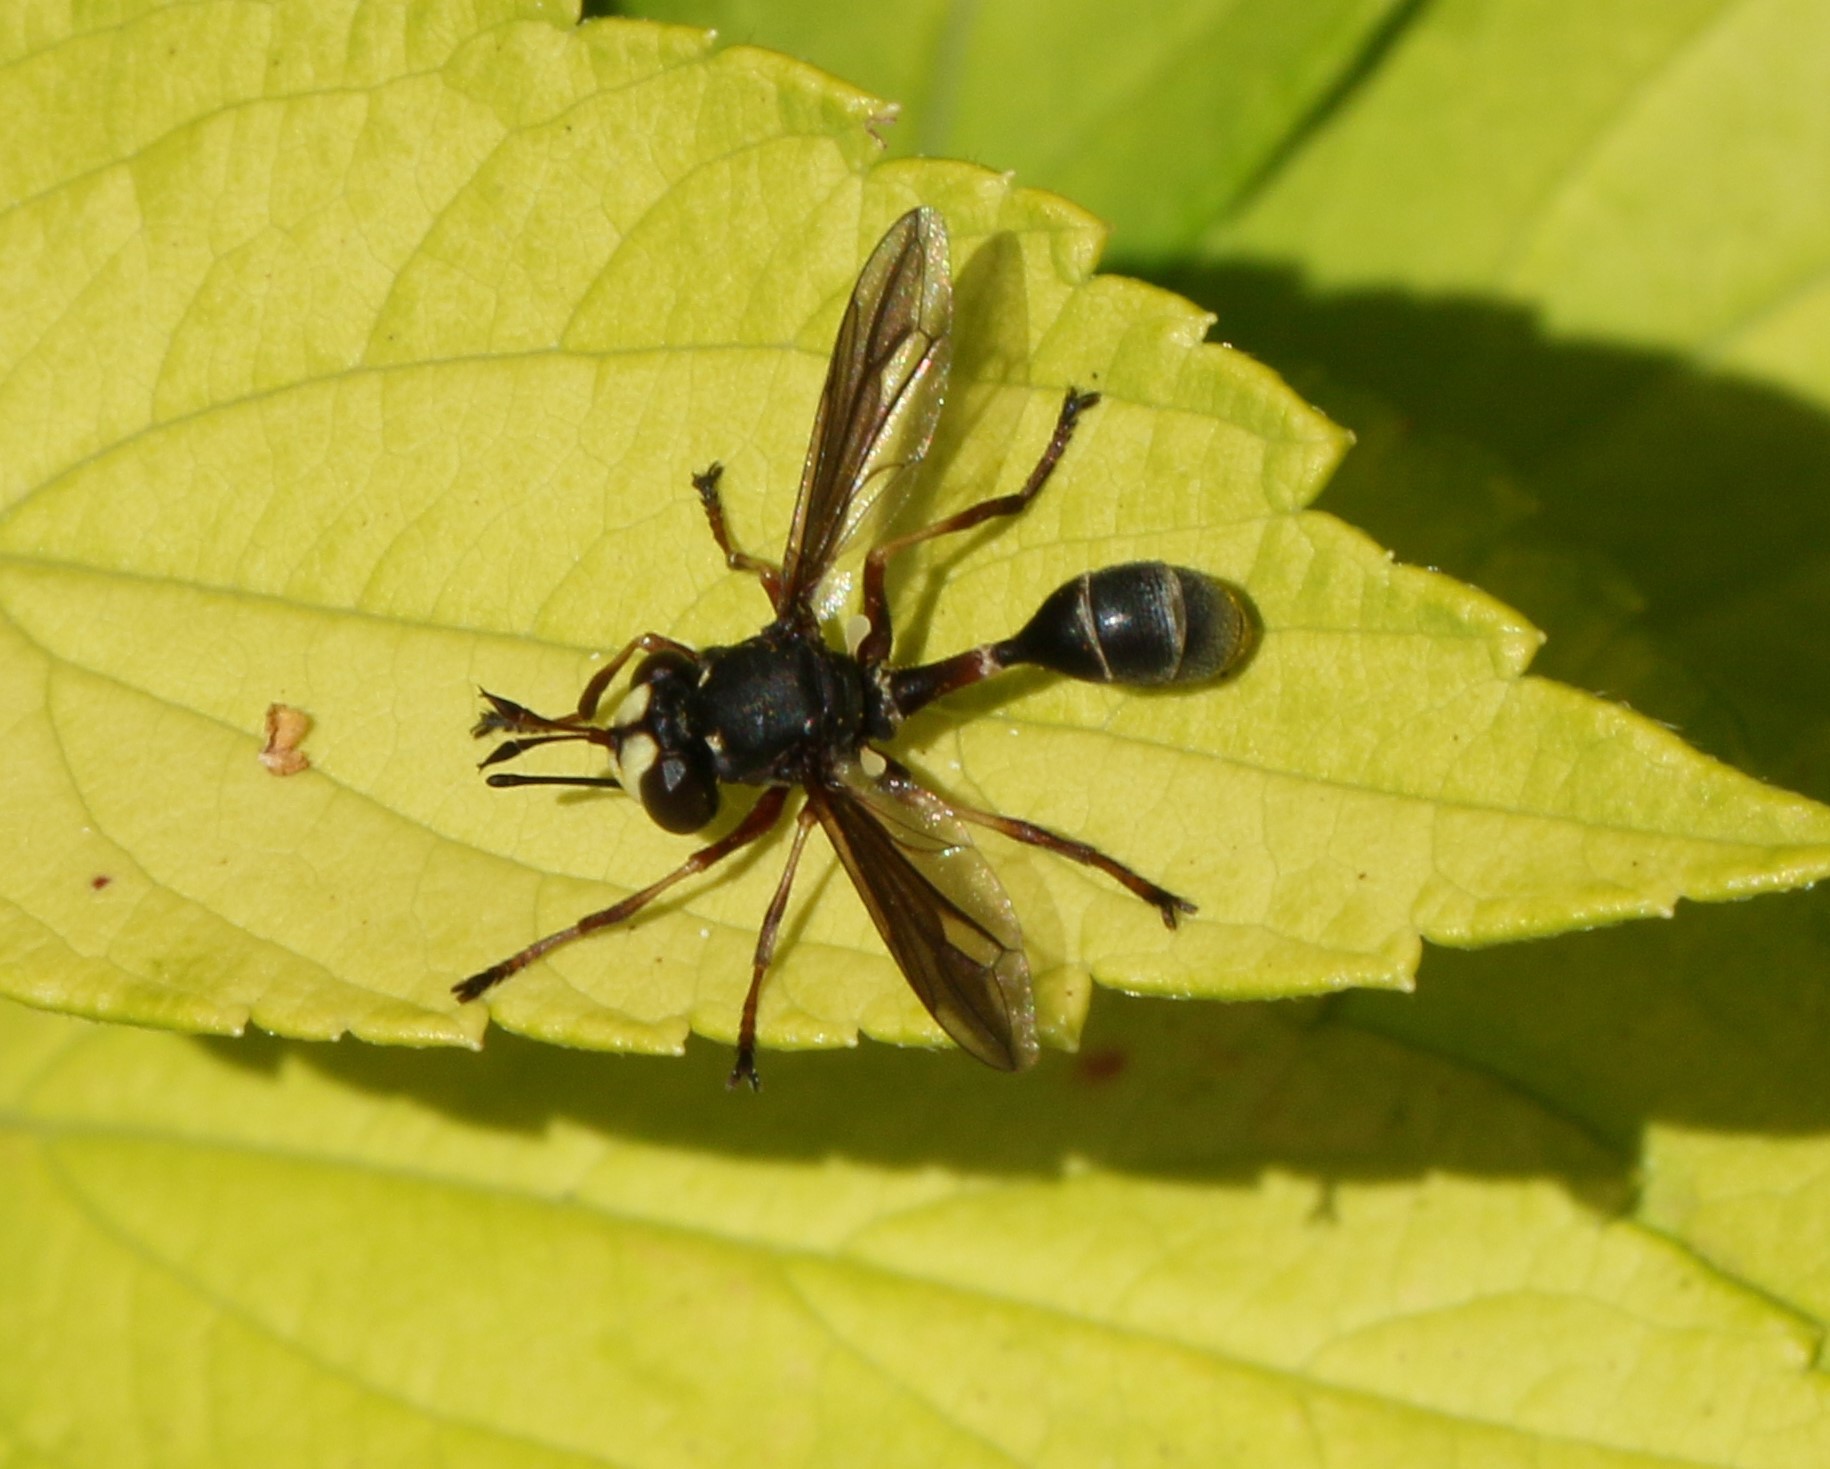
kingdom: Animalia
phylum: Arthropoda
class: Insecta
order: Diptera
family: Conopidae
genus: Physocephala
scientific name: Physocephala furcillata
